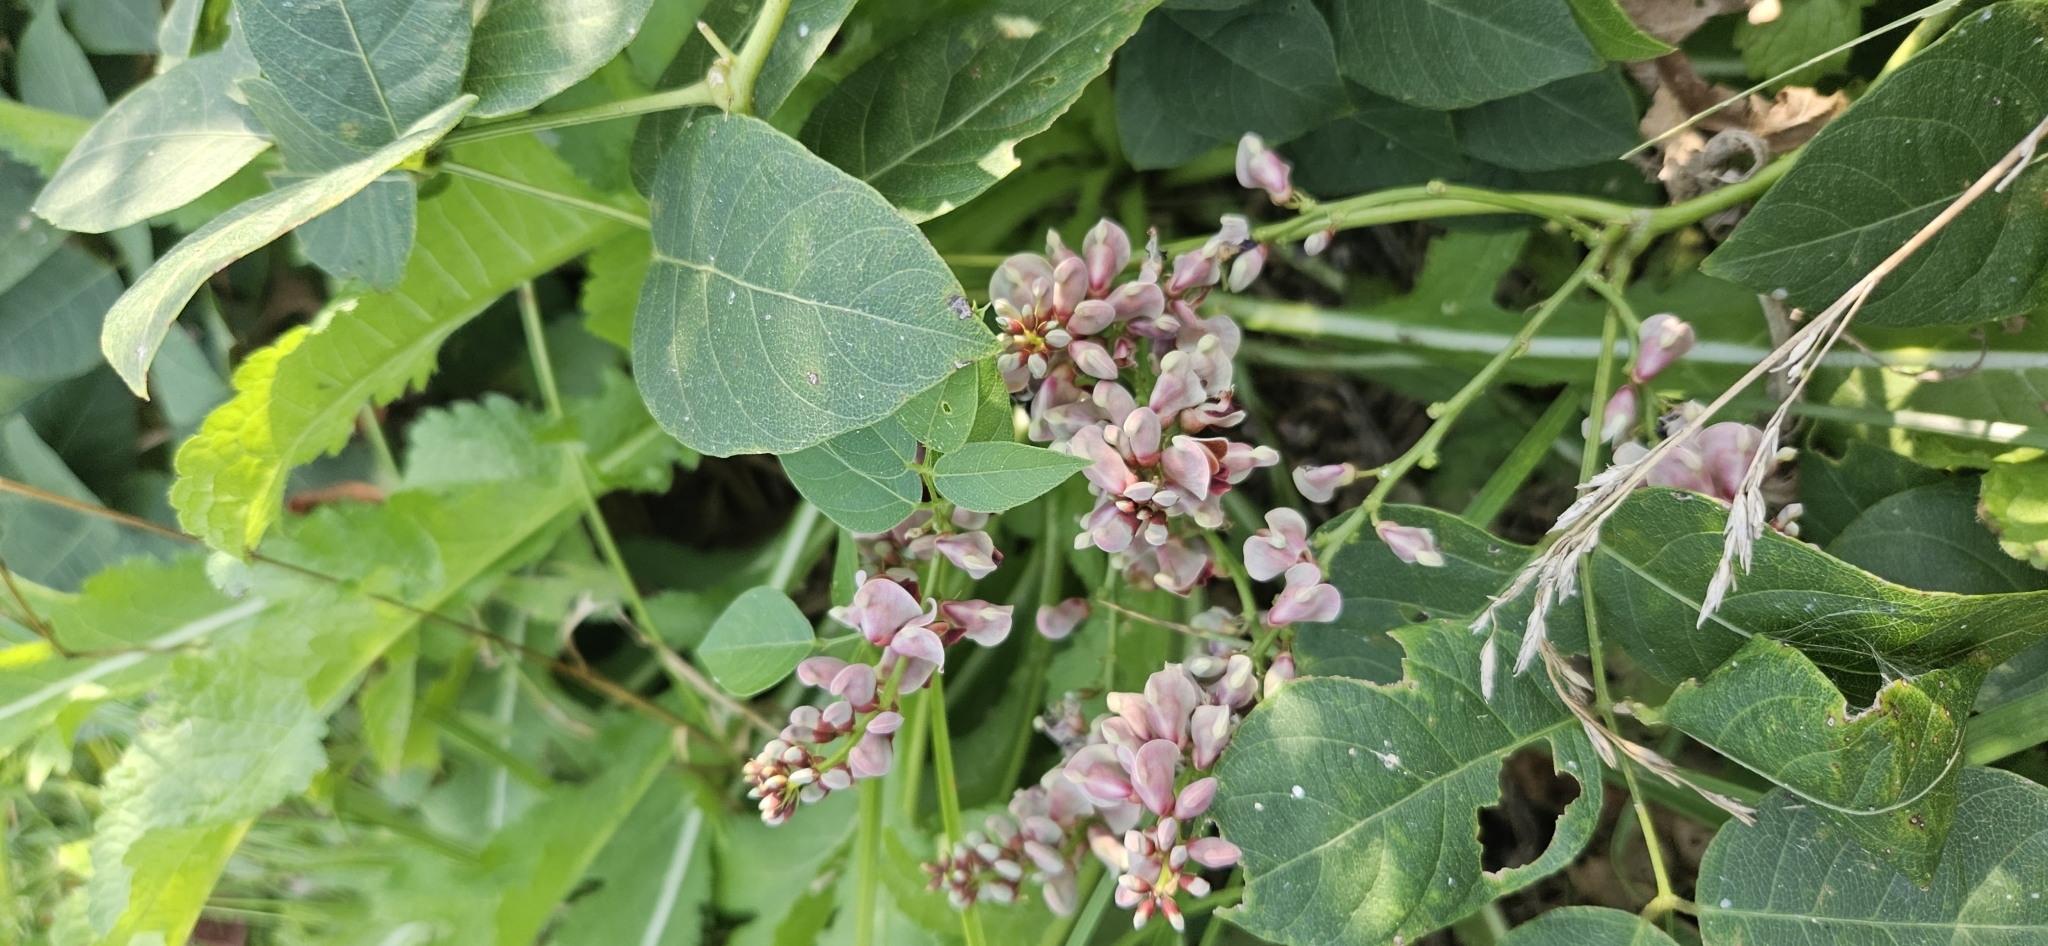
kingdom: Plantae
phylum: Tracheophyta
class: Magnoliopsida
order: Fabales
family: Fabaceae
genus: Apios
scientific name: Apios americana
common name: American potato-bean
